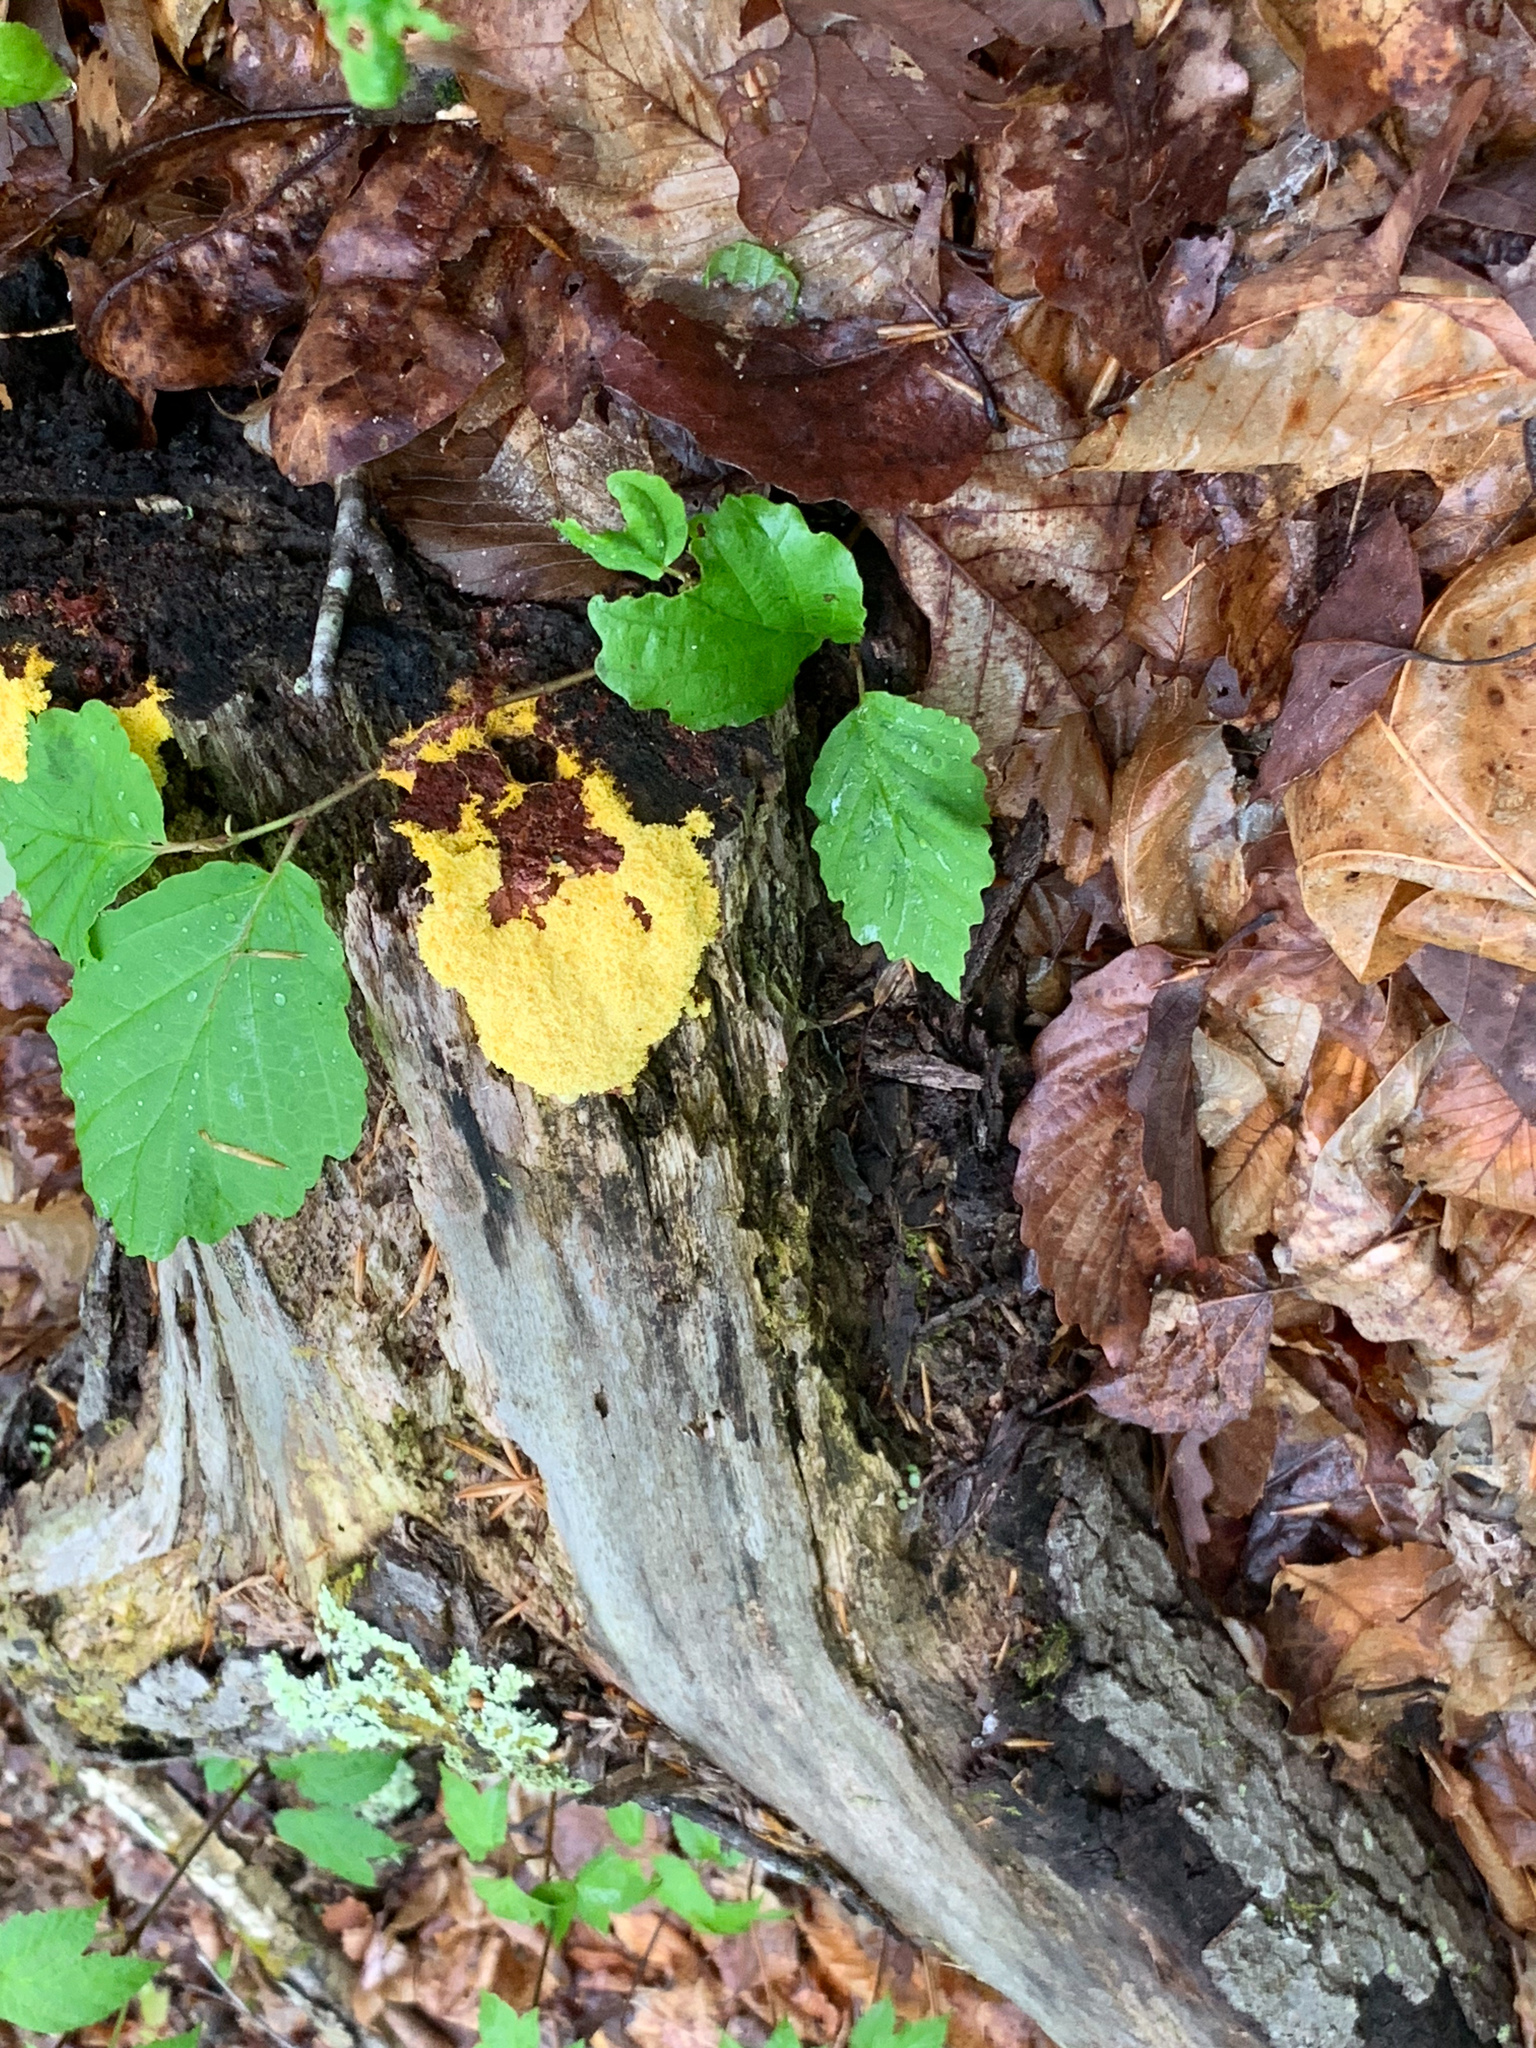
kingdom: Protozoa
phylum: Mycetozoa
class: Myxomycetes
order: Physarales
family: Physaraceae
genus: Fuligo
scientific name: Fuligo septica
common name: Dog vomit slime mold
